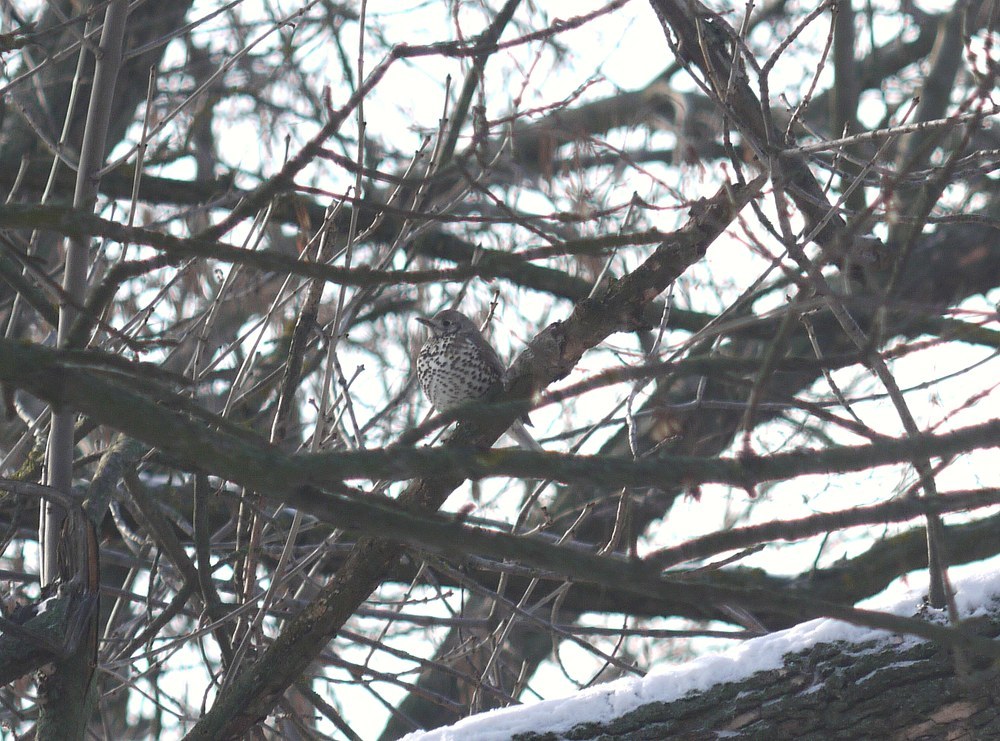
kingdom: Animalia
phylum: Chordata
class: Aves
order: Passeriformes
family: Turdidae
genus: Turdus
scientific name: Turdus viscivorus
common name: Mistle thrush
